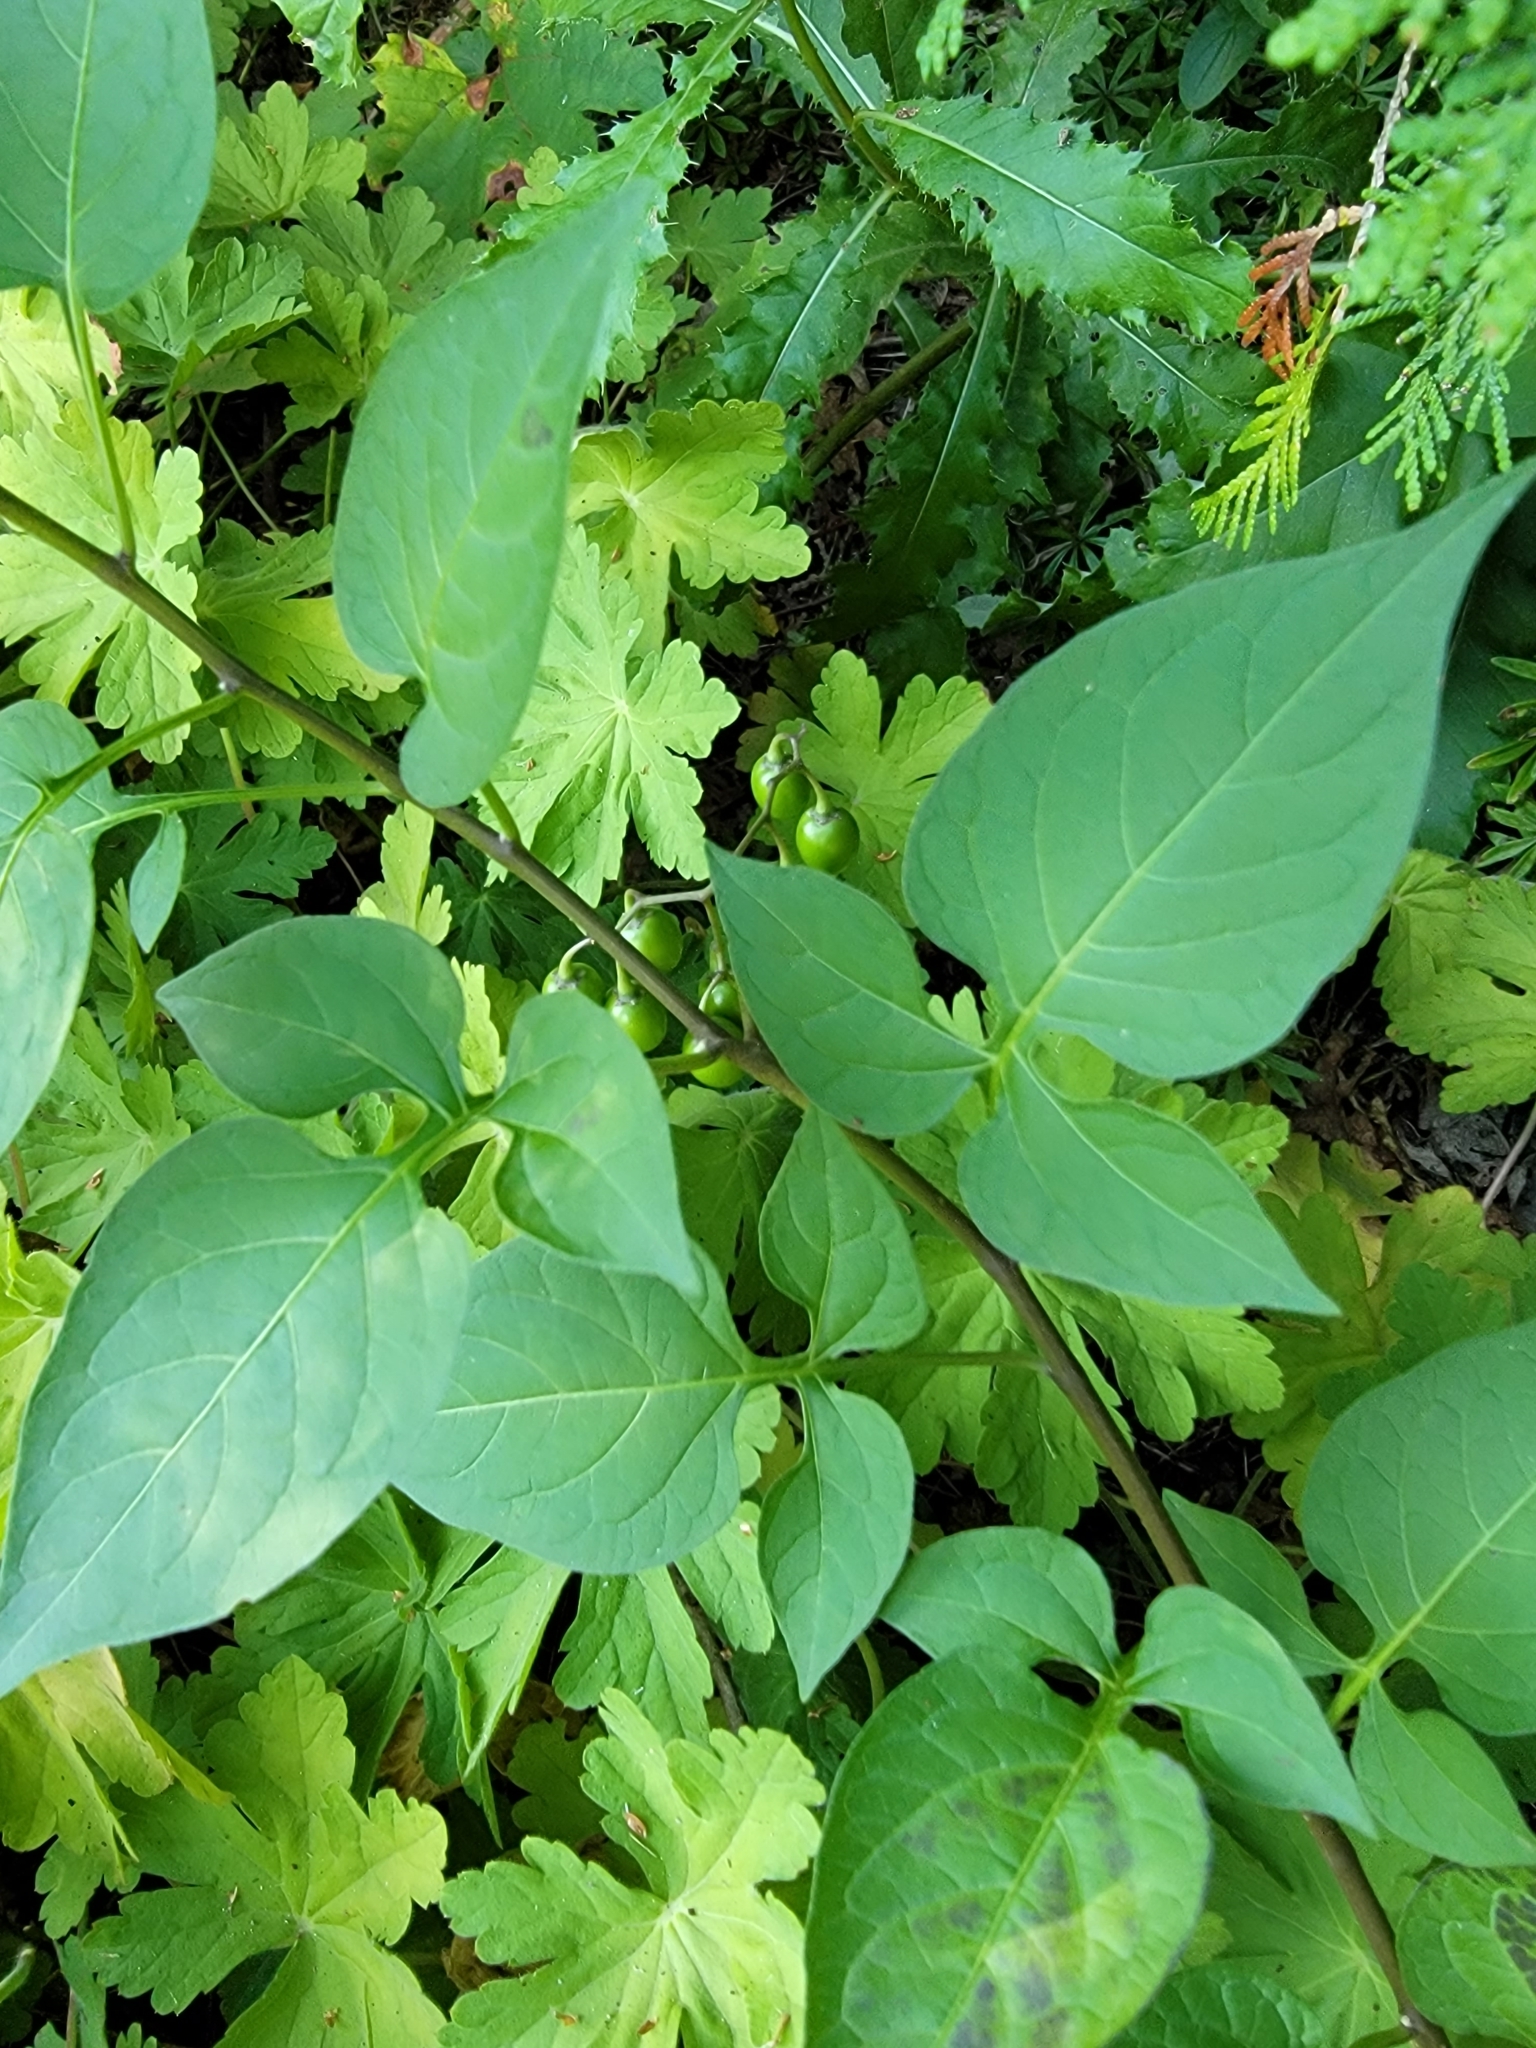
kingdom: Plantae
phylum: Tracheophyta
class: Magnoliopsida
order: Solanales
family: Solanaceae
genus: Solanum
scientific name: Solanum dulcamara
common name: Climbing nightshade
